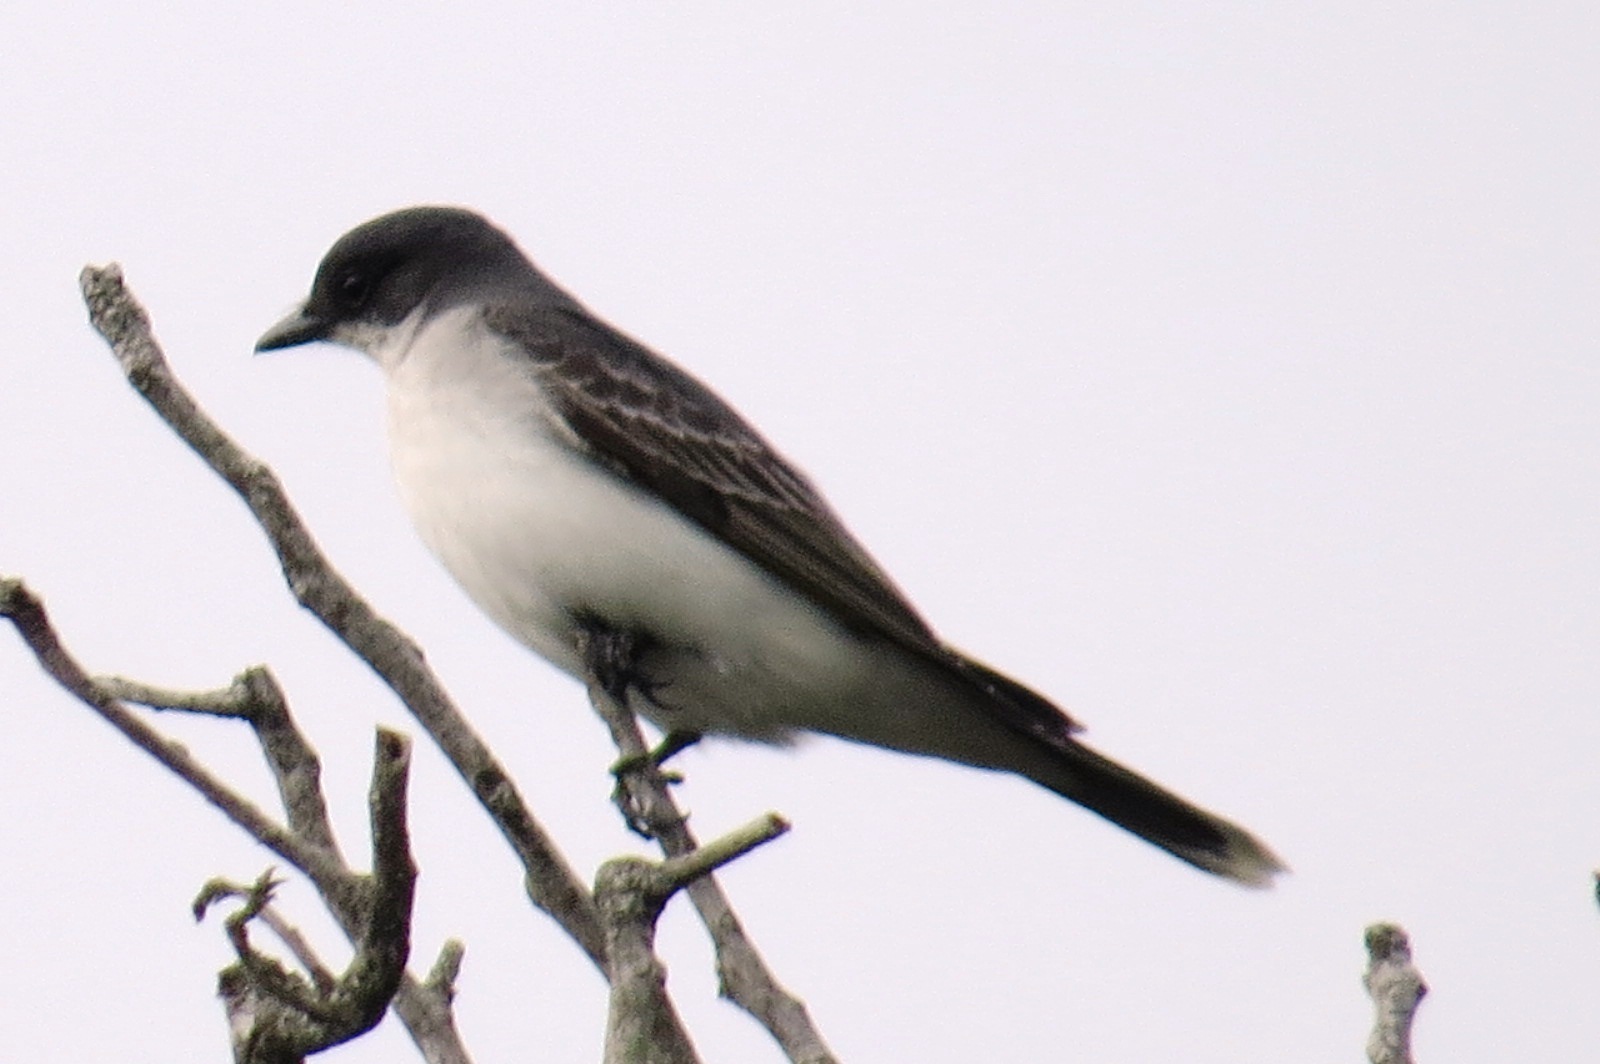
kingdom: Animalia
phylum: Chordata
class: Aves
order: Passeriformes
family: Tyrannidae
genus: Tyrannus
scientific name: Tyrannus tyrannus
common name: Eastern kingbird
